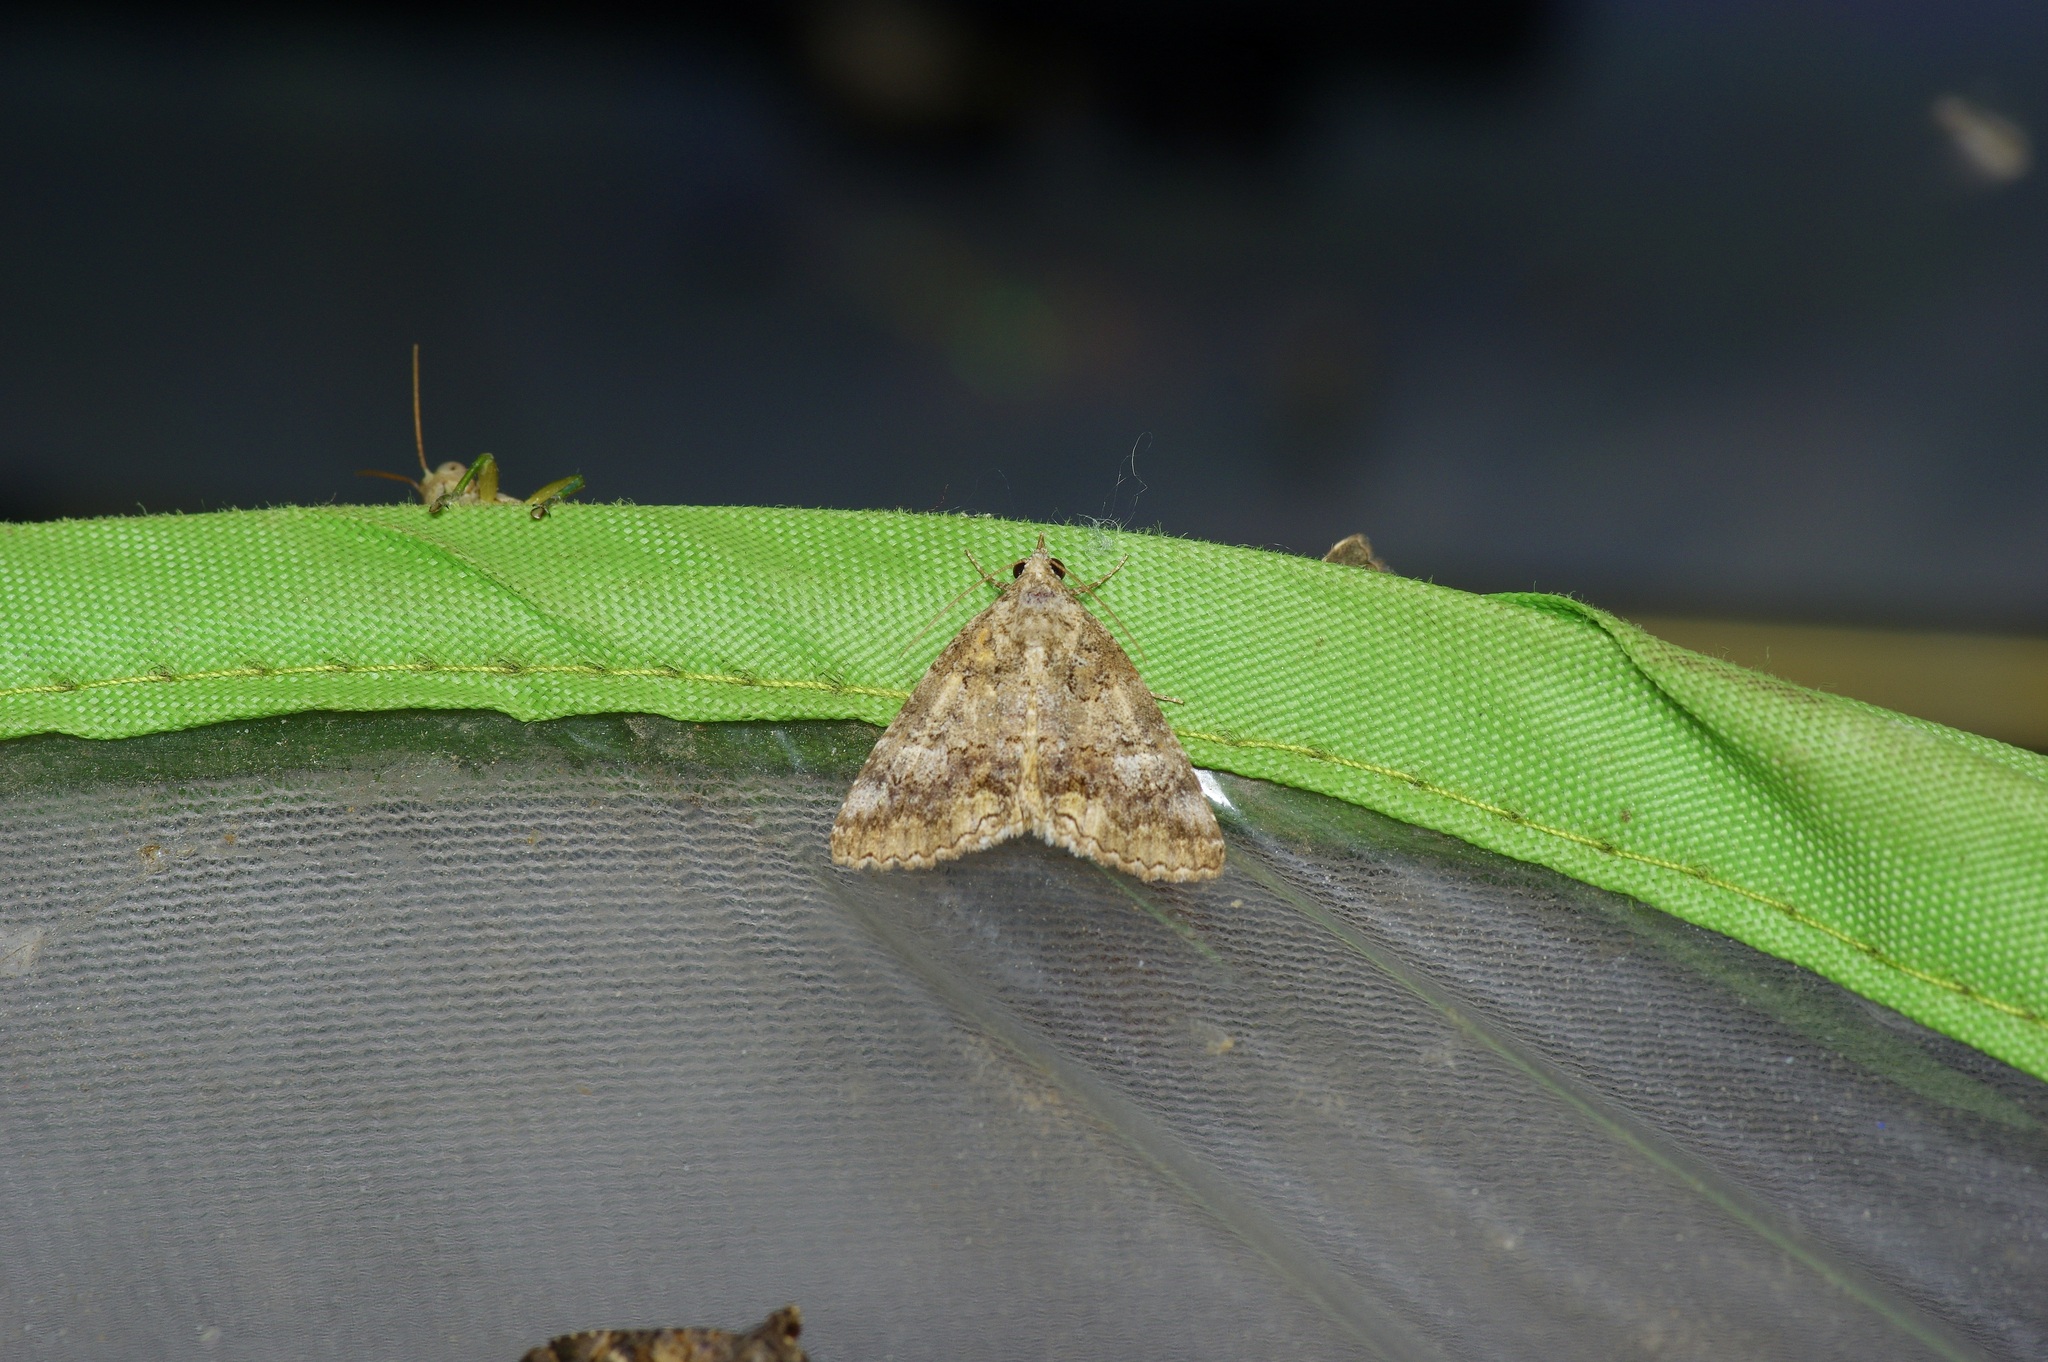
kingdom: Animalia
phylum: Arthropoda
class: Insecta
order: Lepidoptera
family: Erebidae
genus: Eubolina
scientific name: Eubolina impartialis
